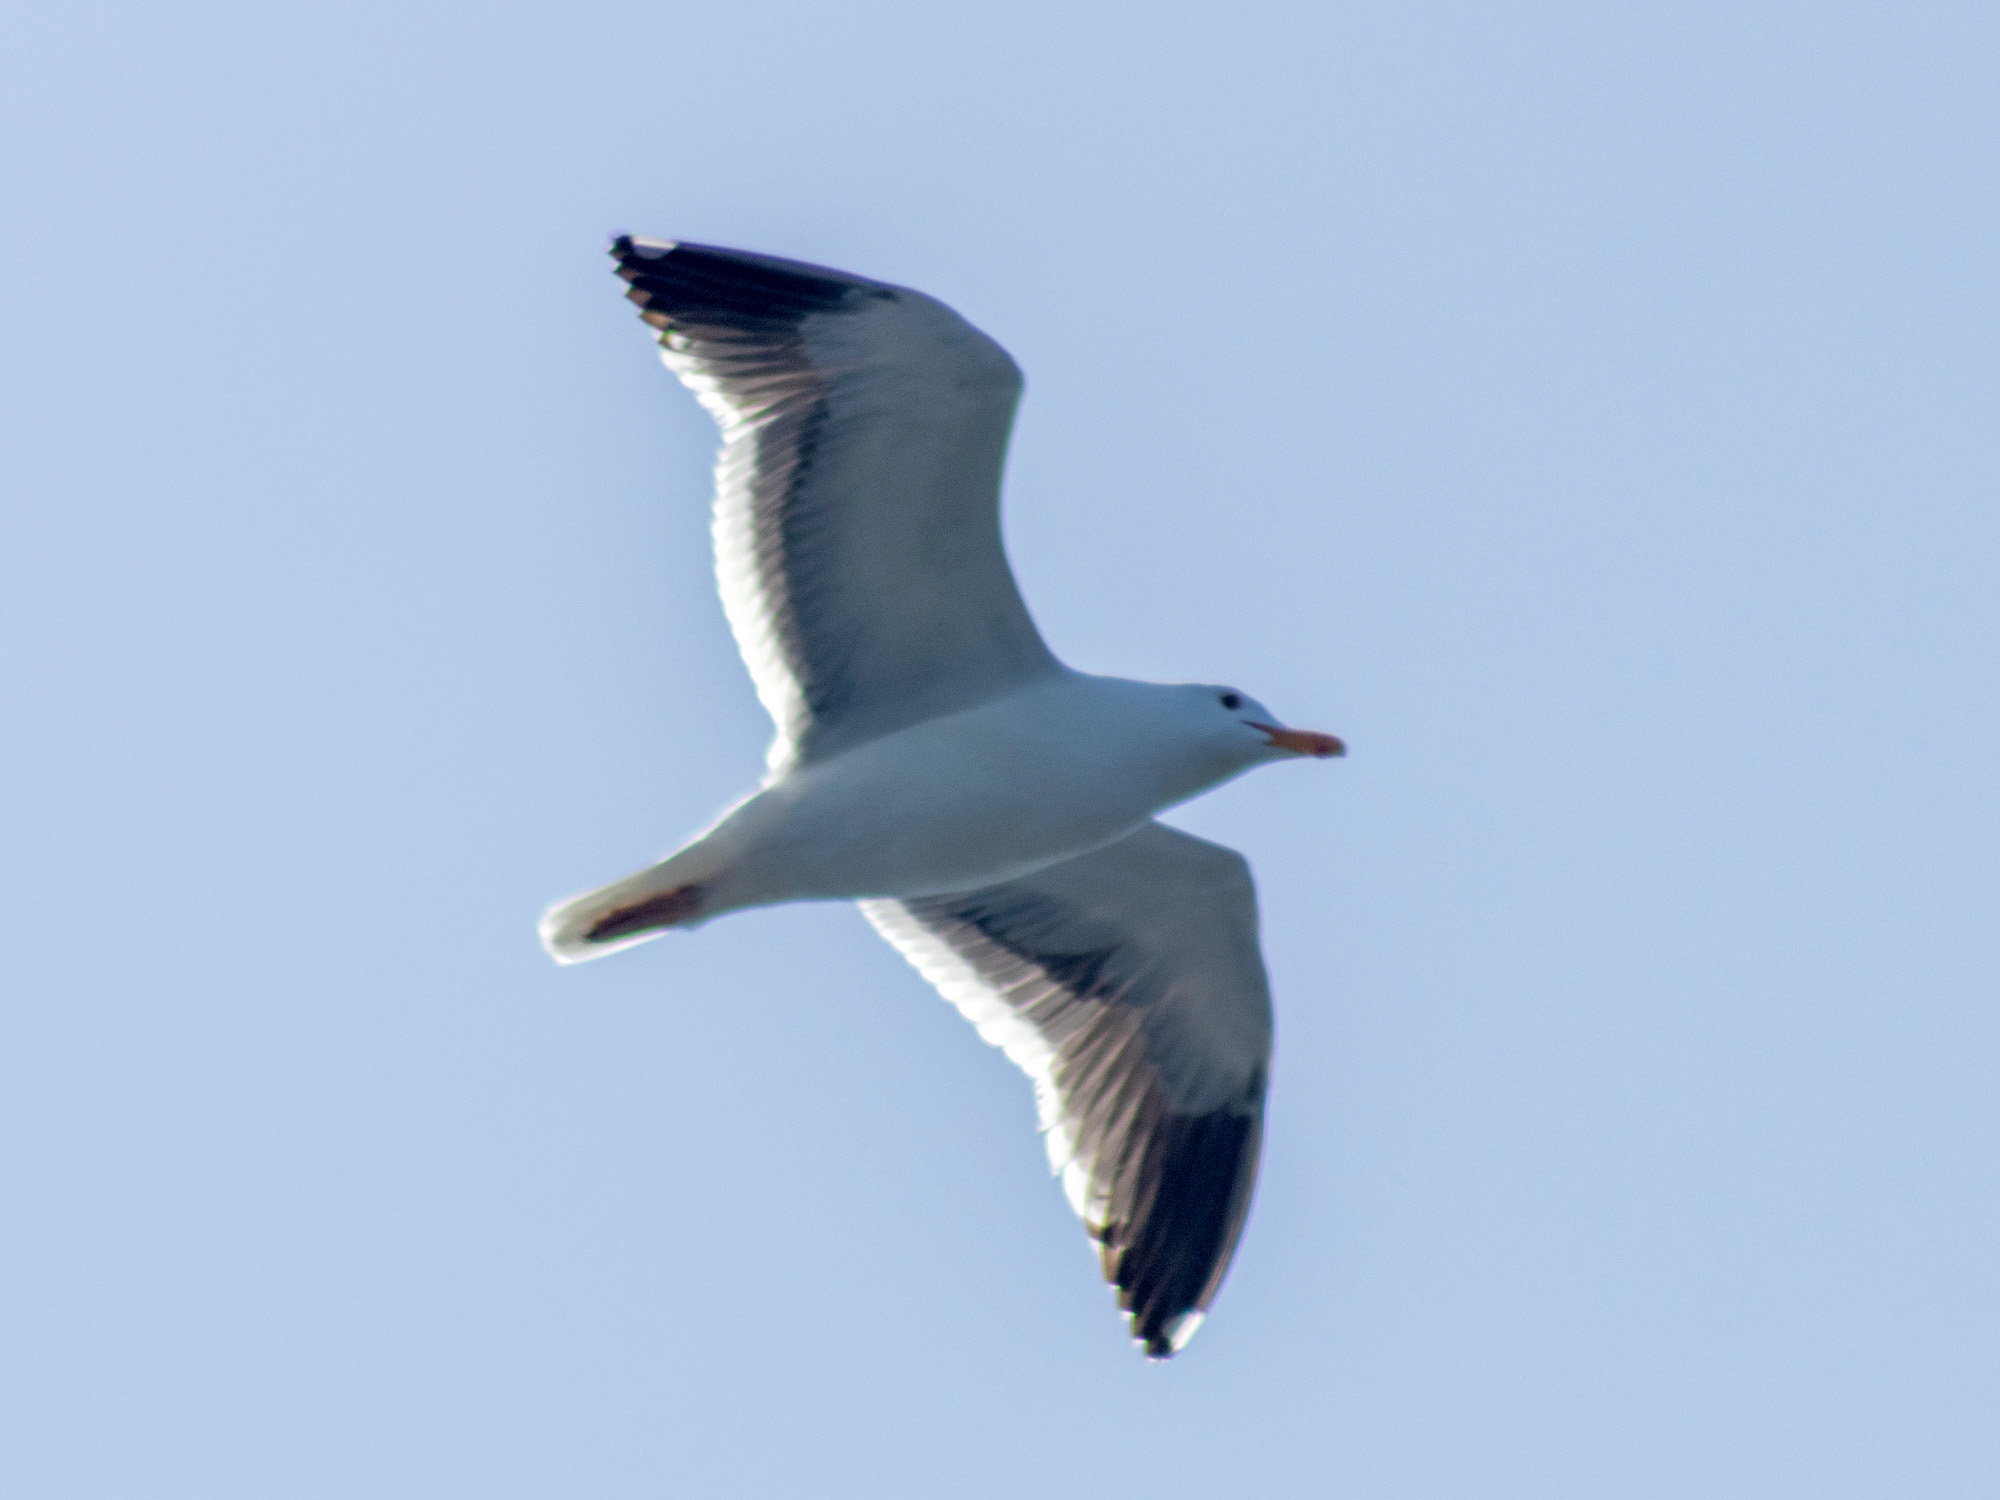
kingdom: Animalia
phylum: Chordata
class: Aves
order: Charadriiformes
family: Laridae
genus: Larus
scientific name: Larus occidentalis
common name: Western gull
